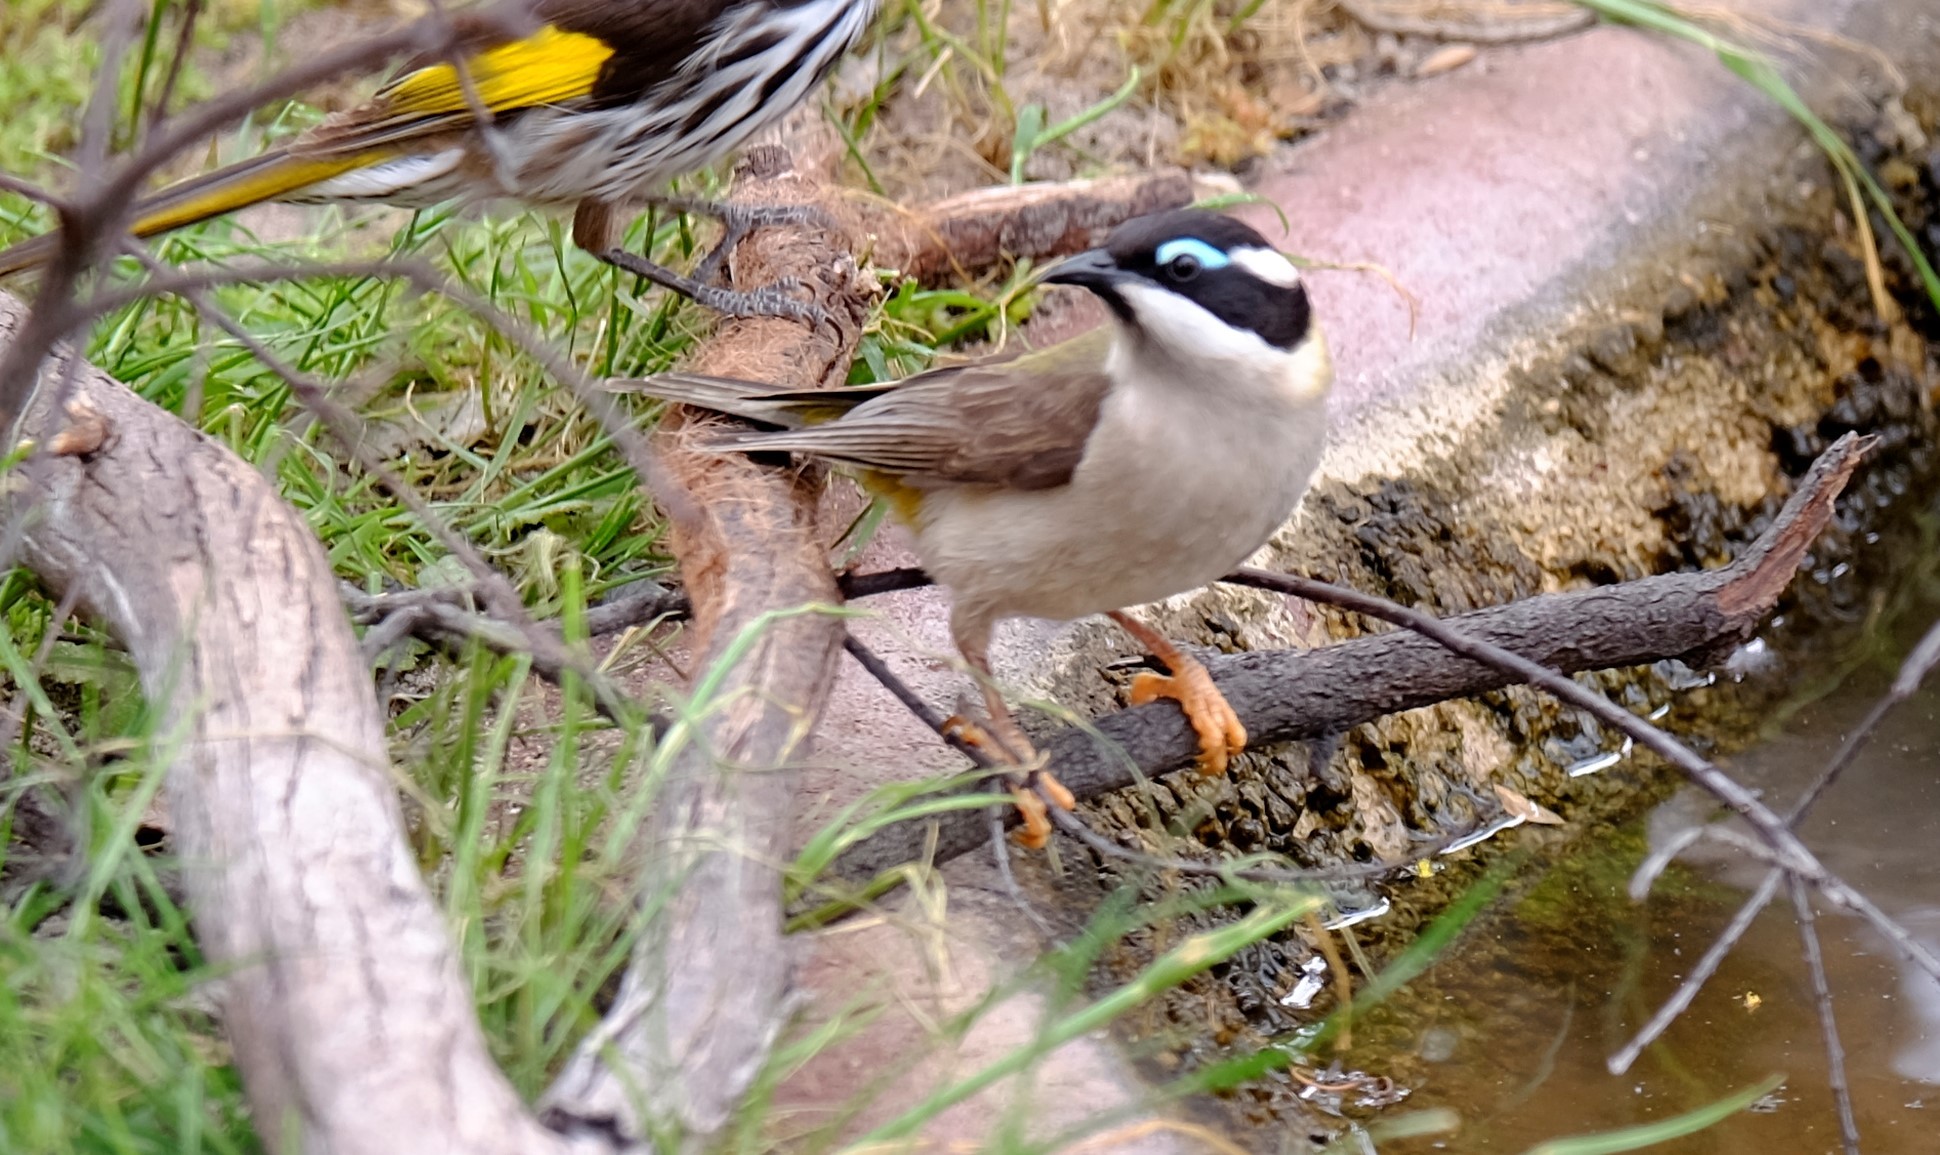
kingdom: Animalia
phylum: Chordata
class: Aves
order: Passeriformes
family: Meliphagidae
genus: Melithreptus
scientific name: Melithreptus gularis
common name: Black-chinned honeyeater
